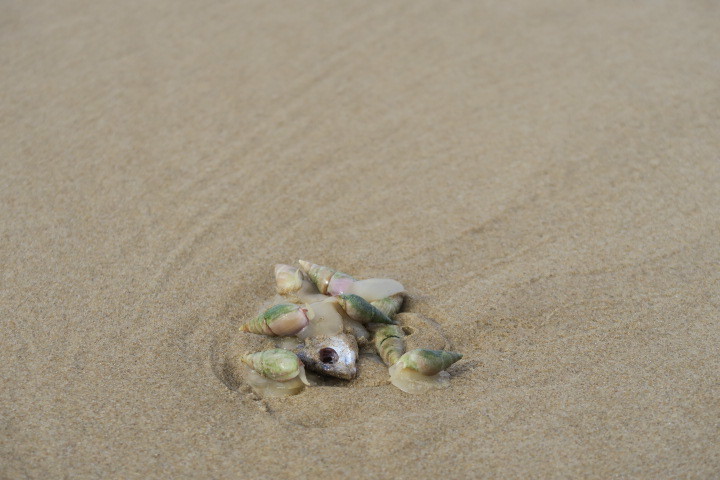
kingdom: Animalia
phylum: Mollusca
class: Gastropoda
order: Neogastropoda
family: Nassariidae
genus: Bullia
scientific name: Bullia rhodostoma
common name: Smooth plough shell
